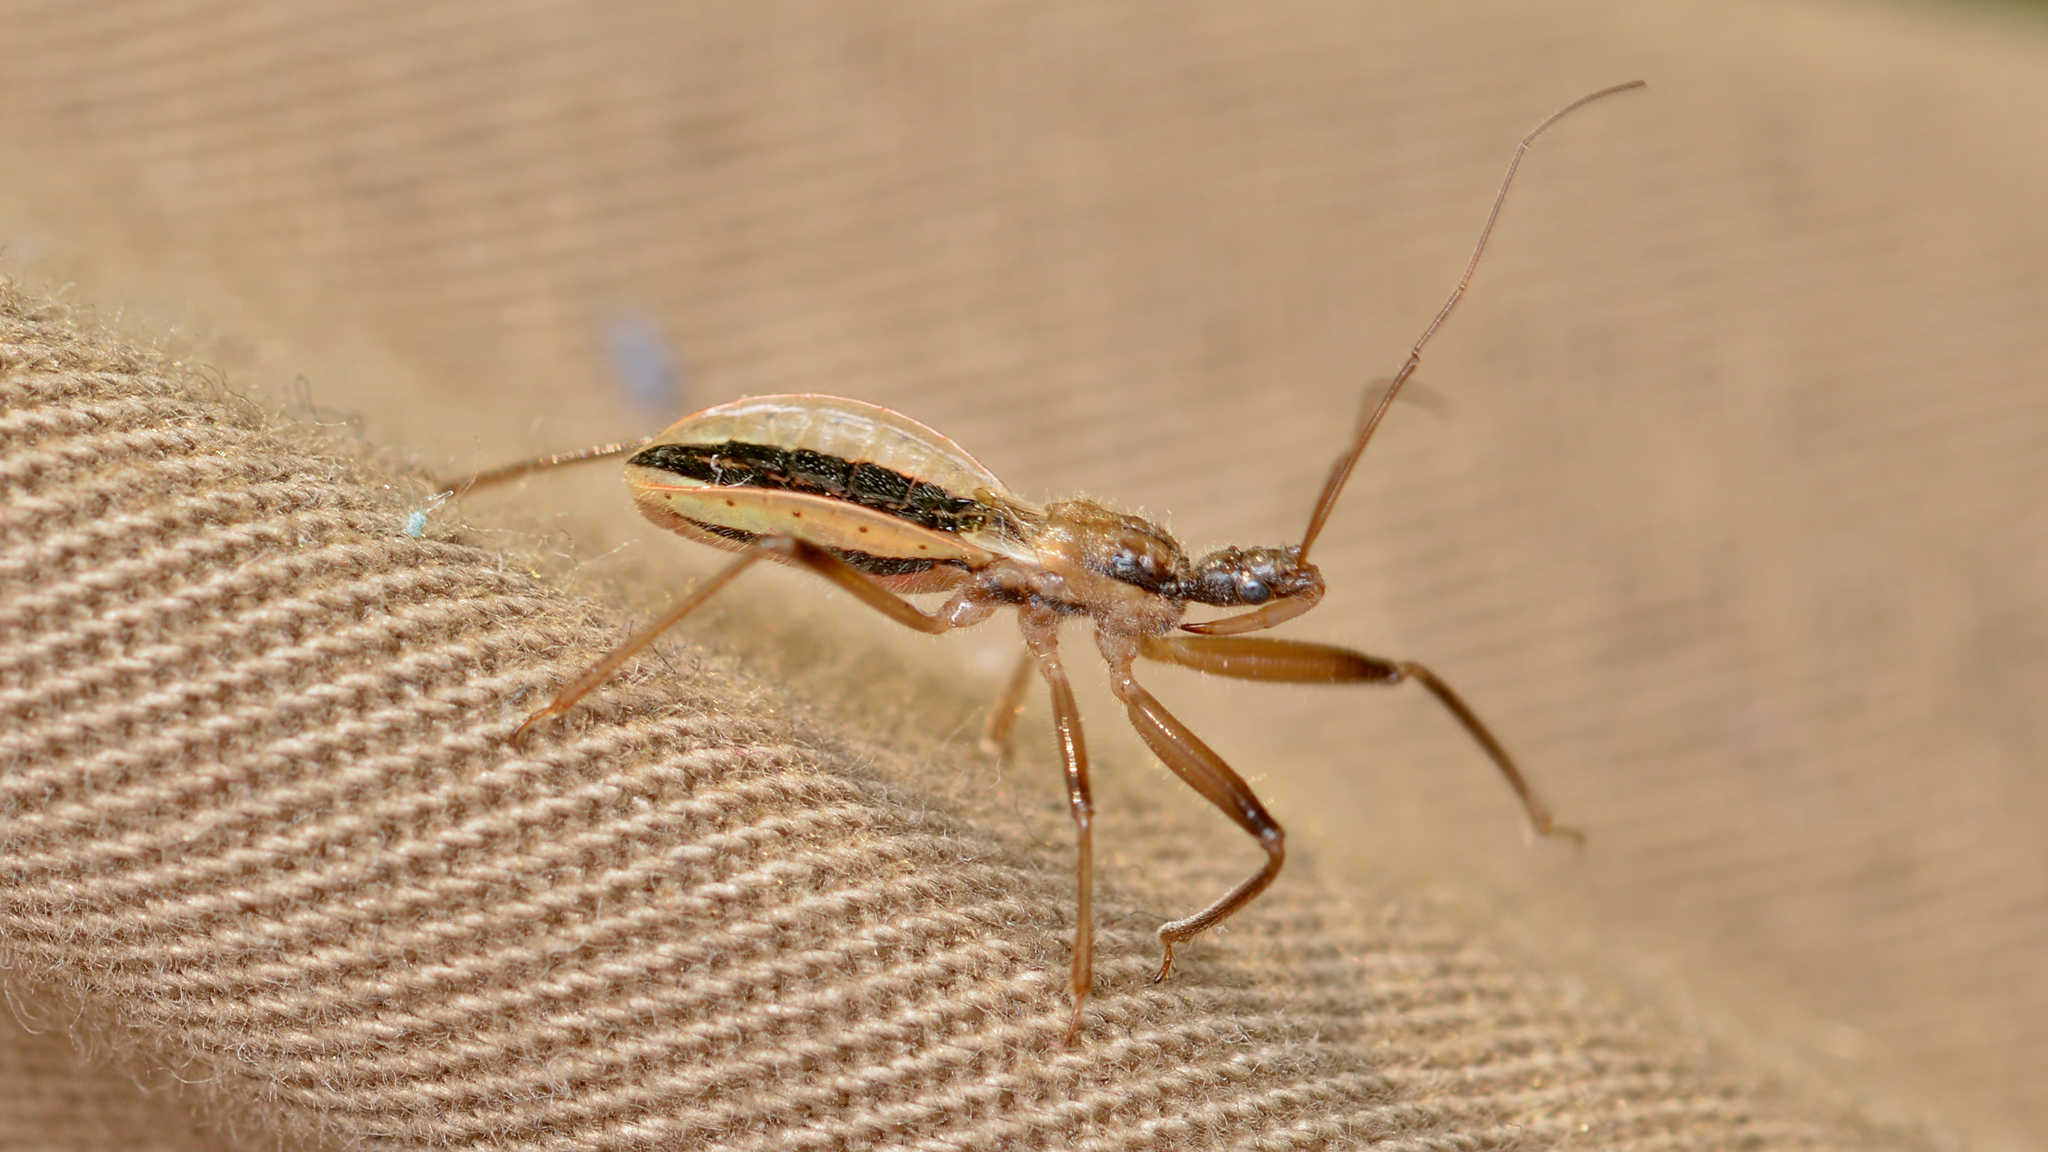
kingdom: Animalia
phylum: Arthropoda
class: Insecta
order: Hemiptera
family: Reduviidae
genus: Fitchia
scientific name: Fitchia aptera
